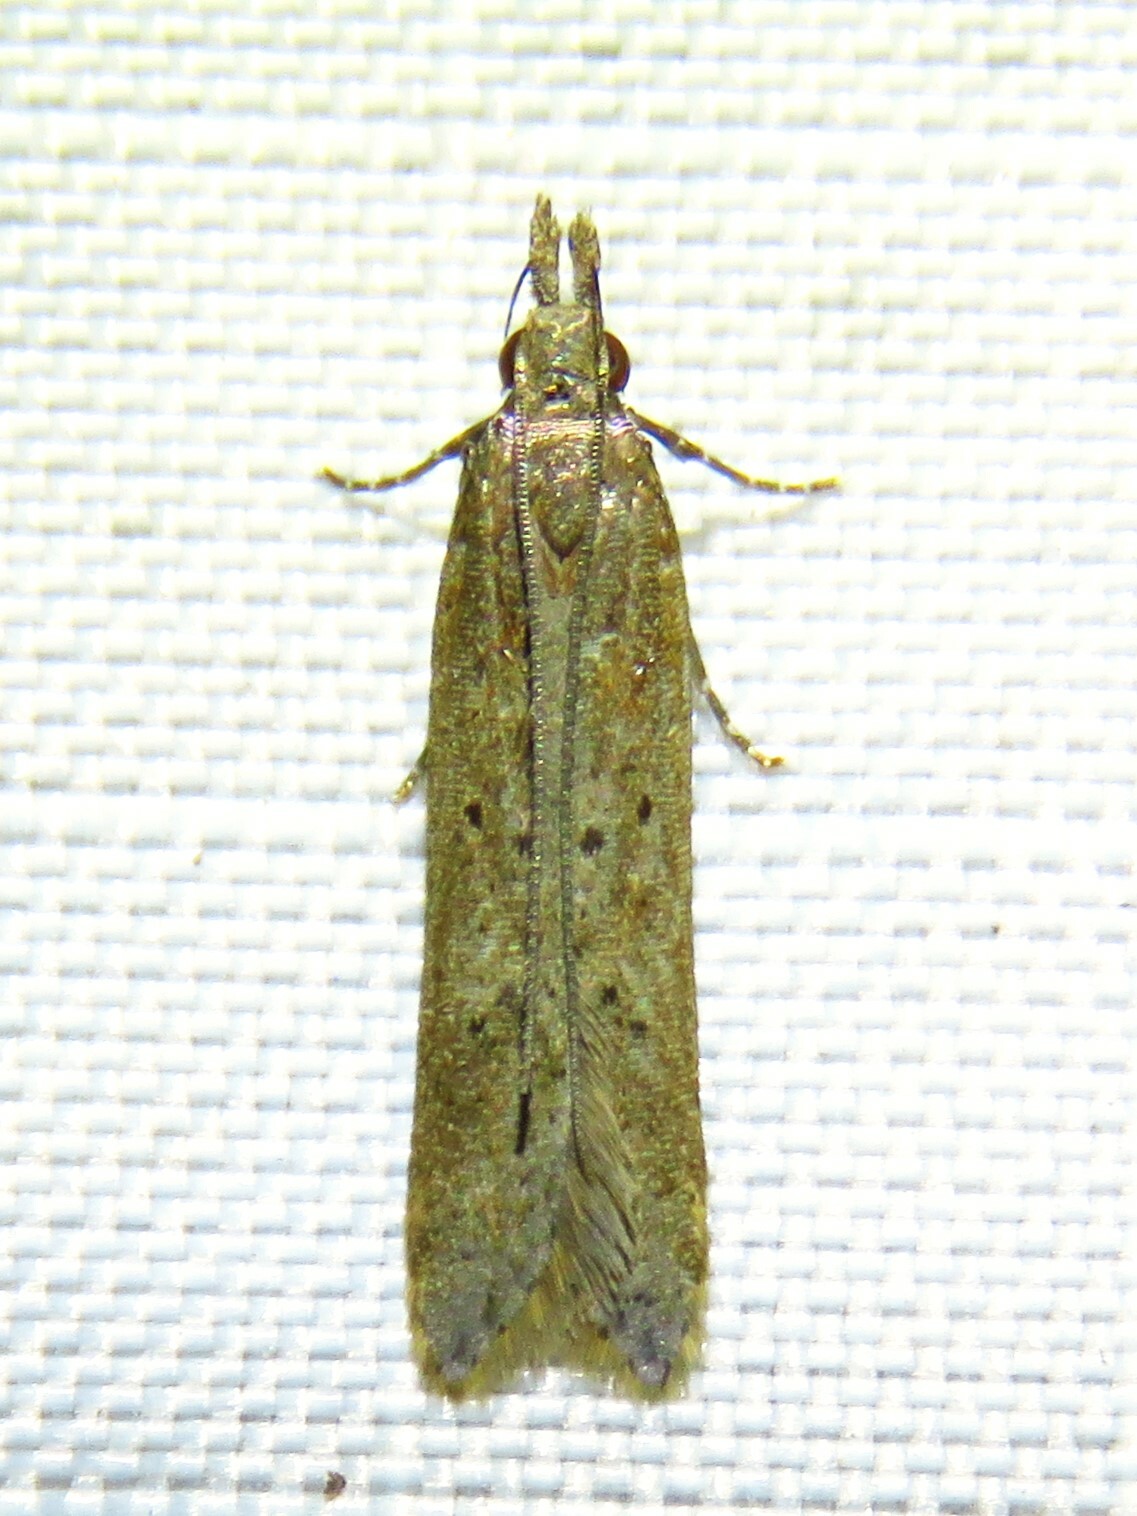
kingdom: Animalia
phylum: Arthropoda
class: Insecta
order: Lepidoptera
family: Gelechiidae
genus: Dichomeris
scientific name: Dichomeris ligulella
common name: Moth
